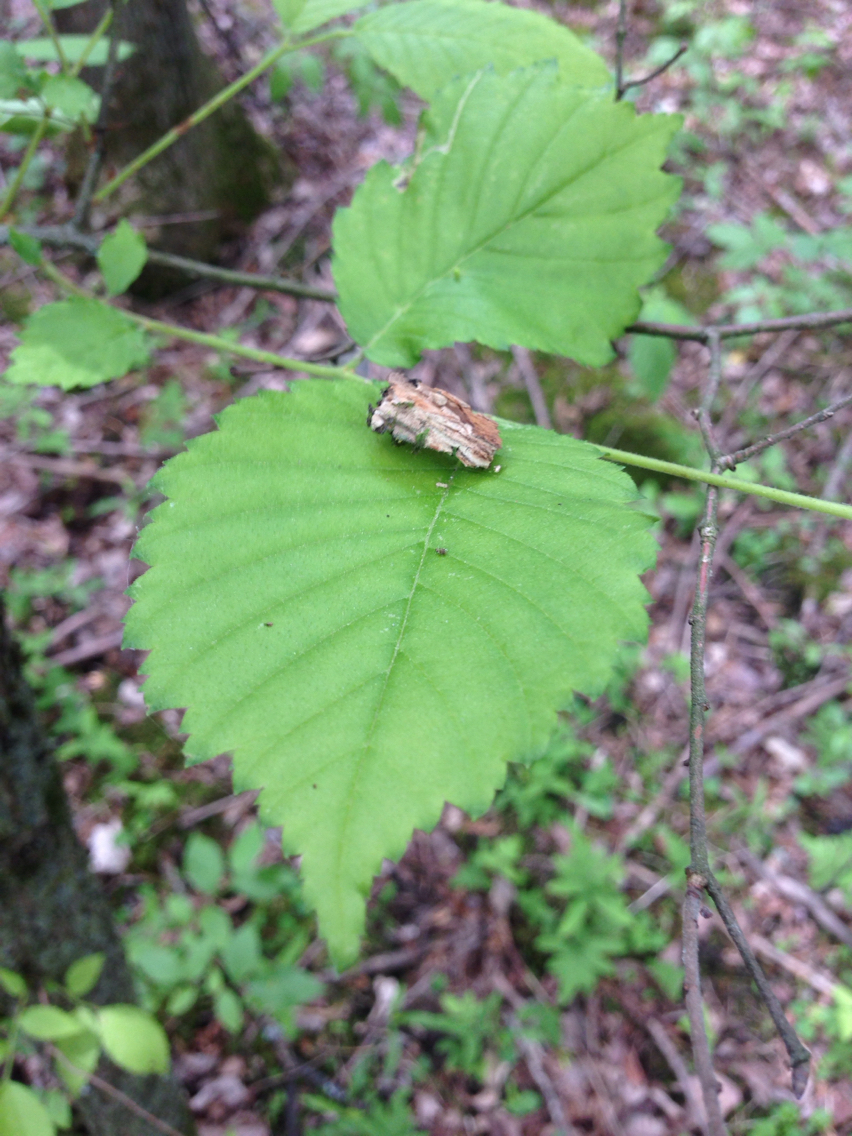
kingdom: Plantae
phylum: Tracheophyta
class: Magnoliopsida
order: Rosales
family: Ulmaceae
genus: Ulmus
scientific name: Ulmus americana
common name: American elm
